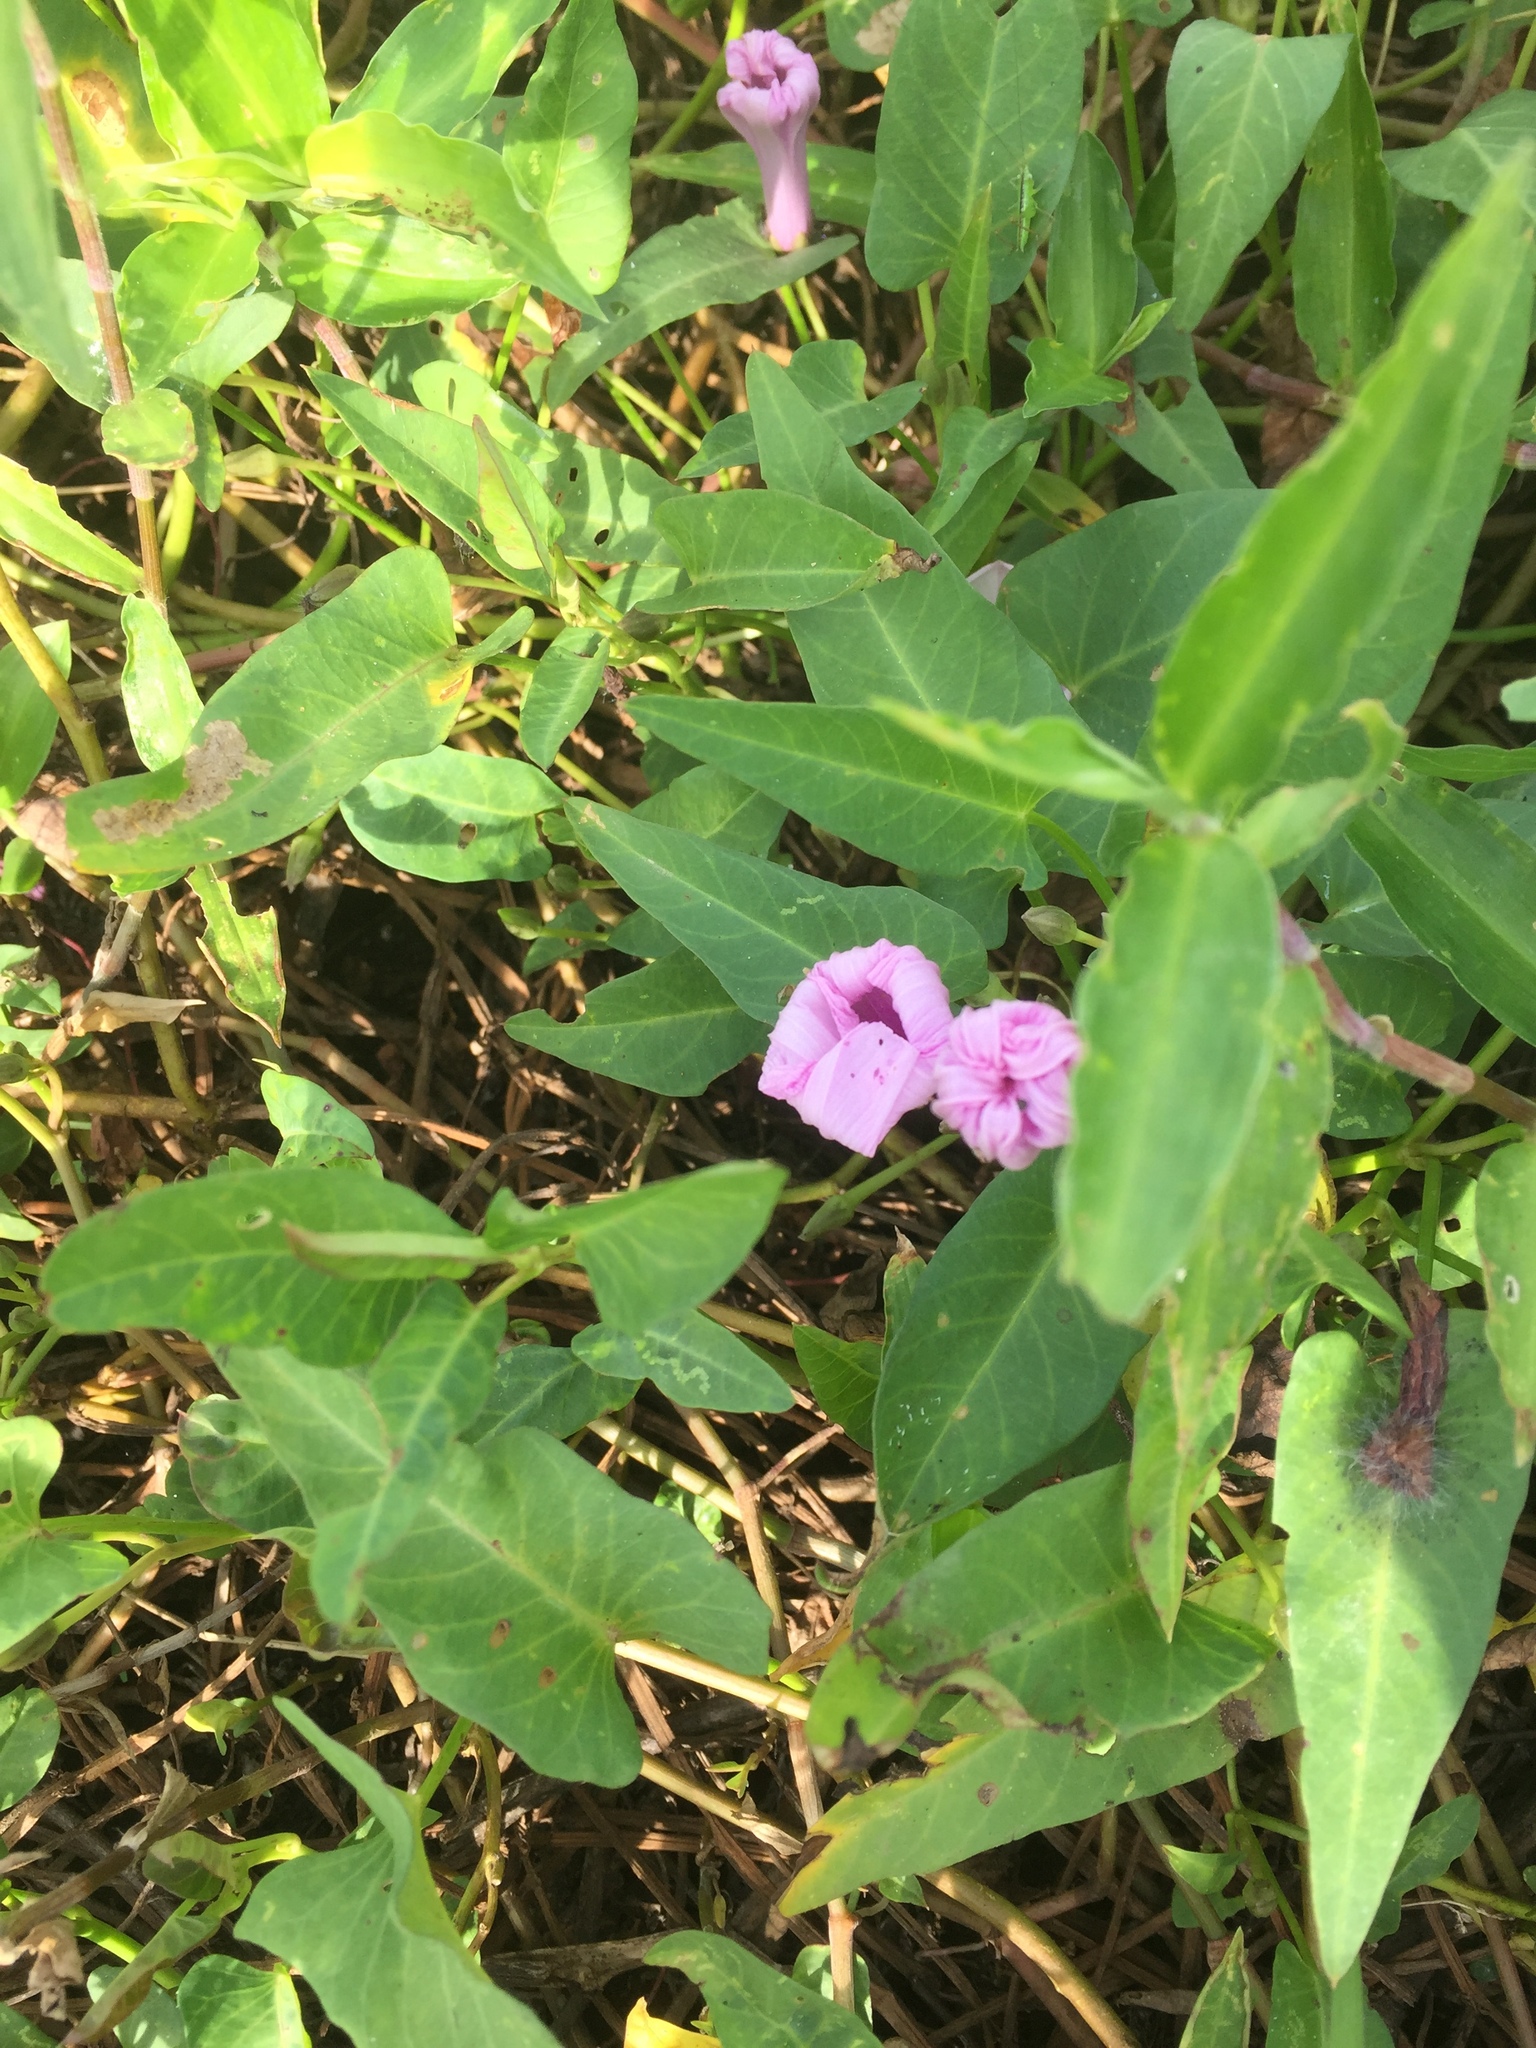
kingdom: Plantae
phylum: Tracheophyta
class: Magnoliopsida
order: Solanales
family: Convolvulaceae
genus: Ipomoea
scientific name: Ipomoea aquatica
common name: Swamp morning-glory
